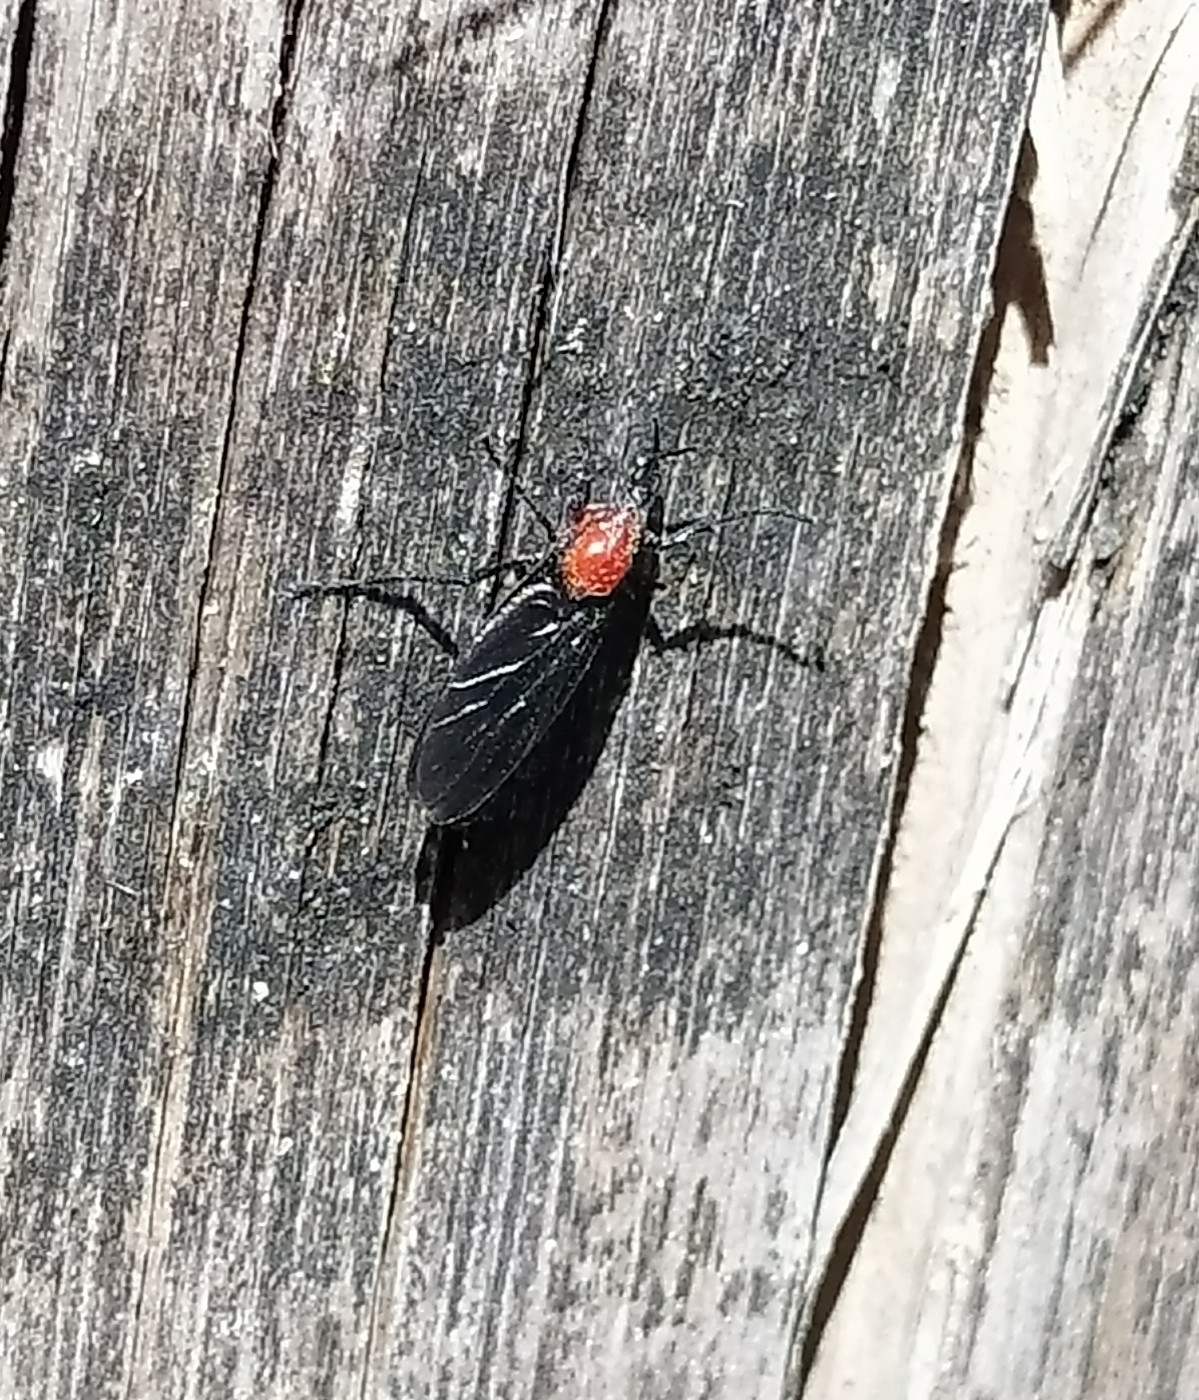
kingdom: Animalia
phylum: Arthropoda
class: Insecta
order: Diptera
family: Bibionidae
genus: Dilophus
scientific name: Dilophus pectoralis
